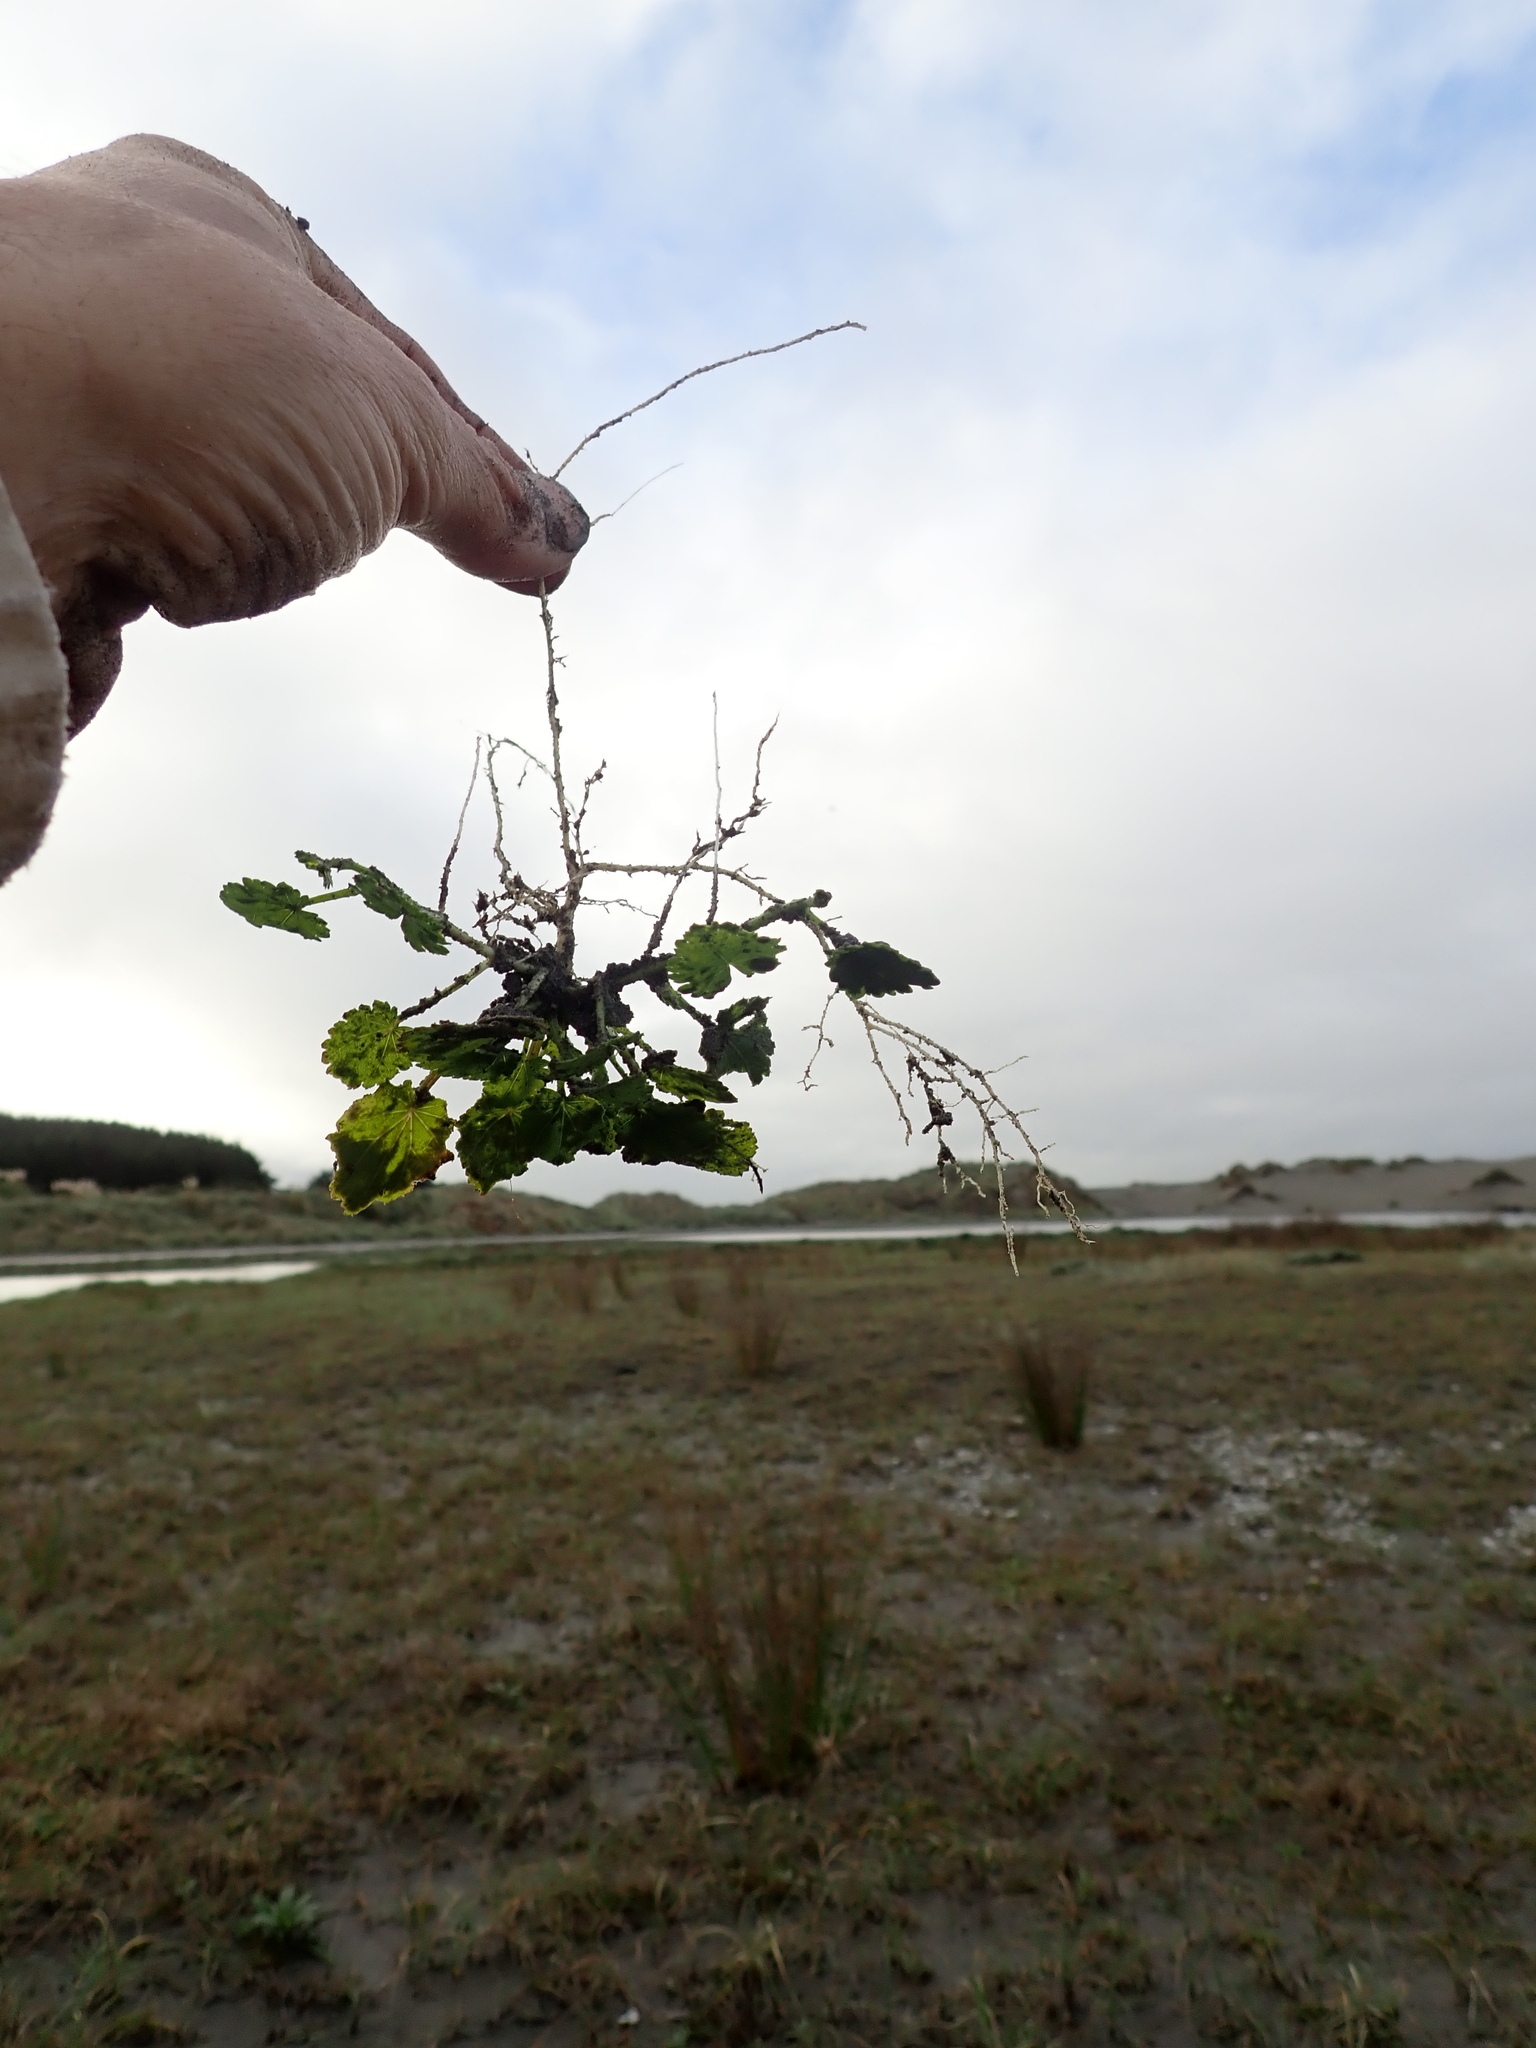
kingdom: Plantae
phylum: Tracheophyta
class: Magnoliopsida
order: Malvales
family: Malvaceae
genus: Modiola
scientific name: Modiola caroliniana
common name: Carolina bristlemallow
